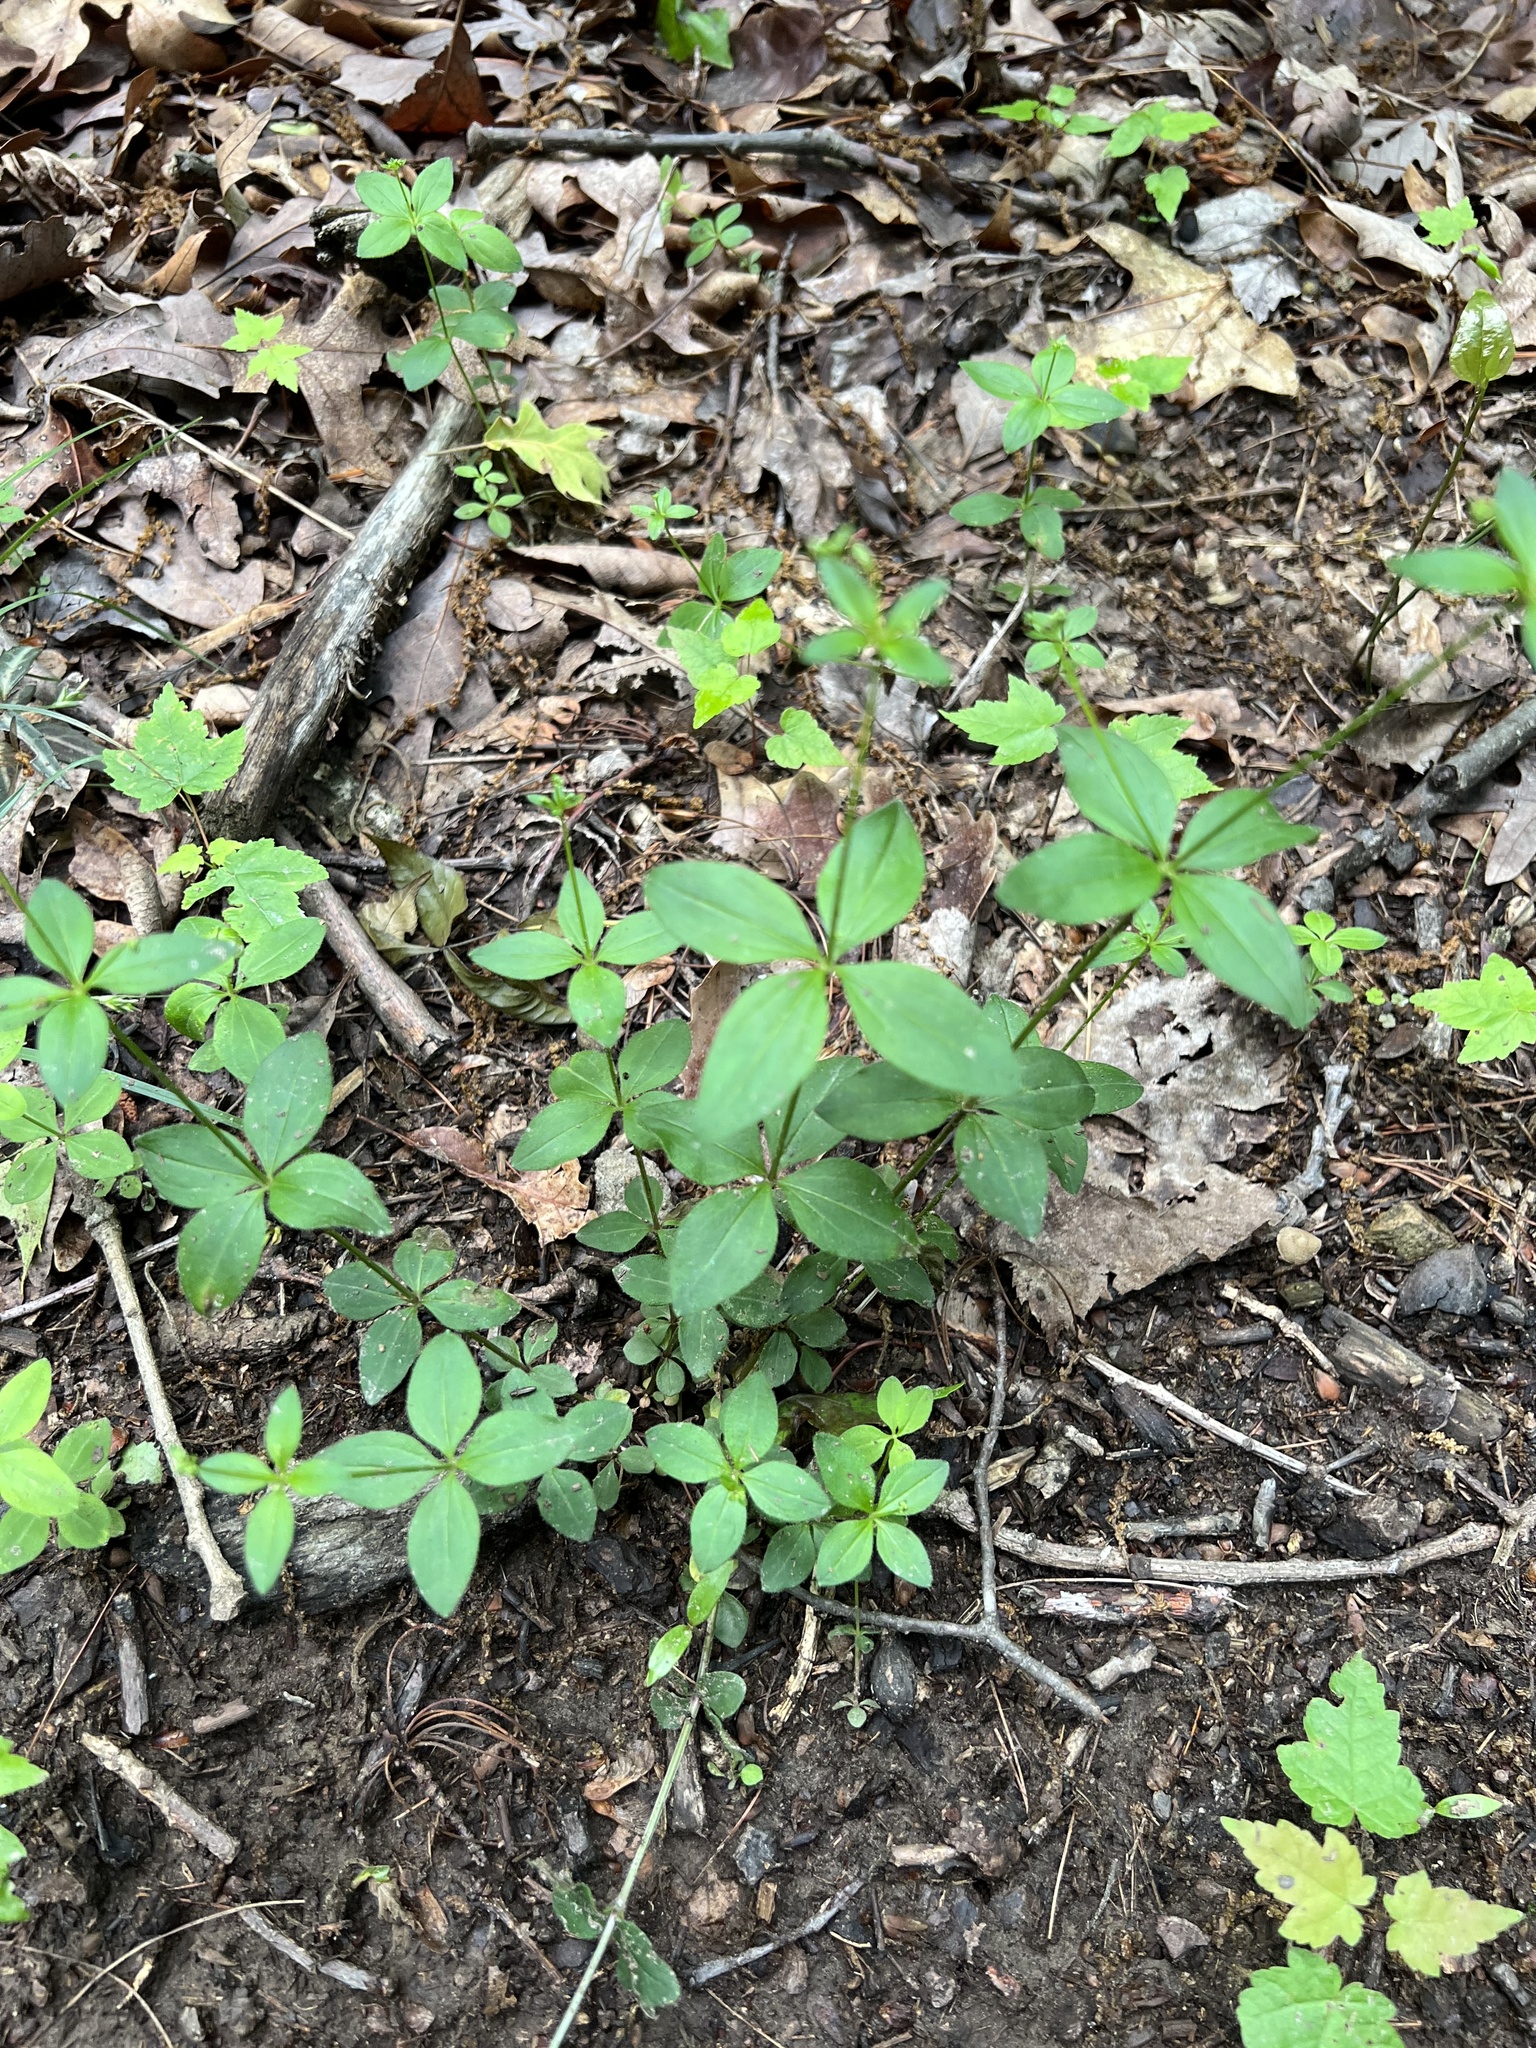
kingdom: Plantae
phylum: Tracheophyta
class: Magnoliopsida
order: Gentianales
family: Rubiaceae
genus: Galium
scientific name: Galium circaezans
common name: Forest bedstraw
